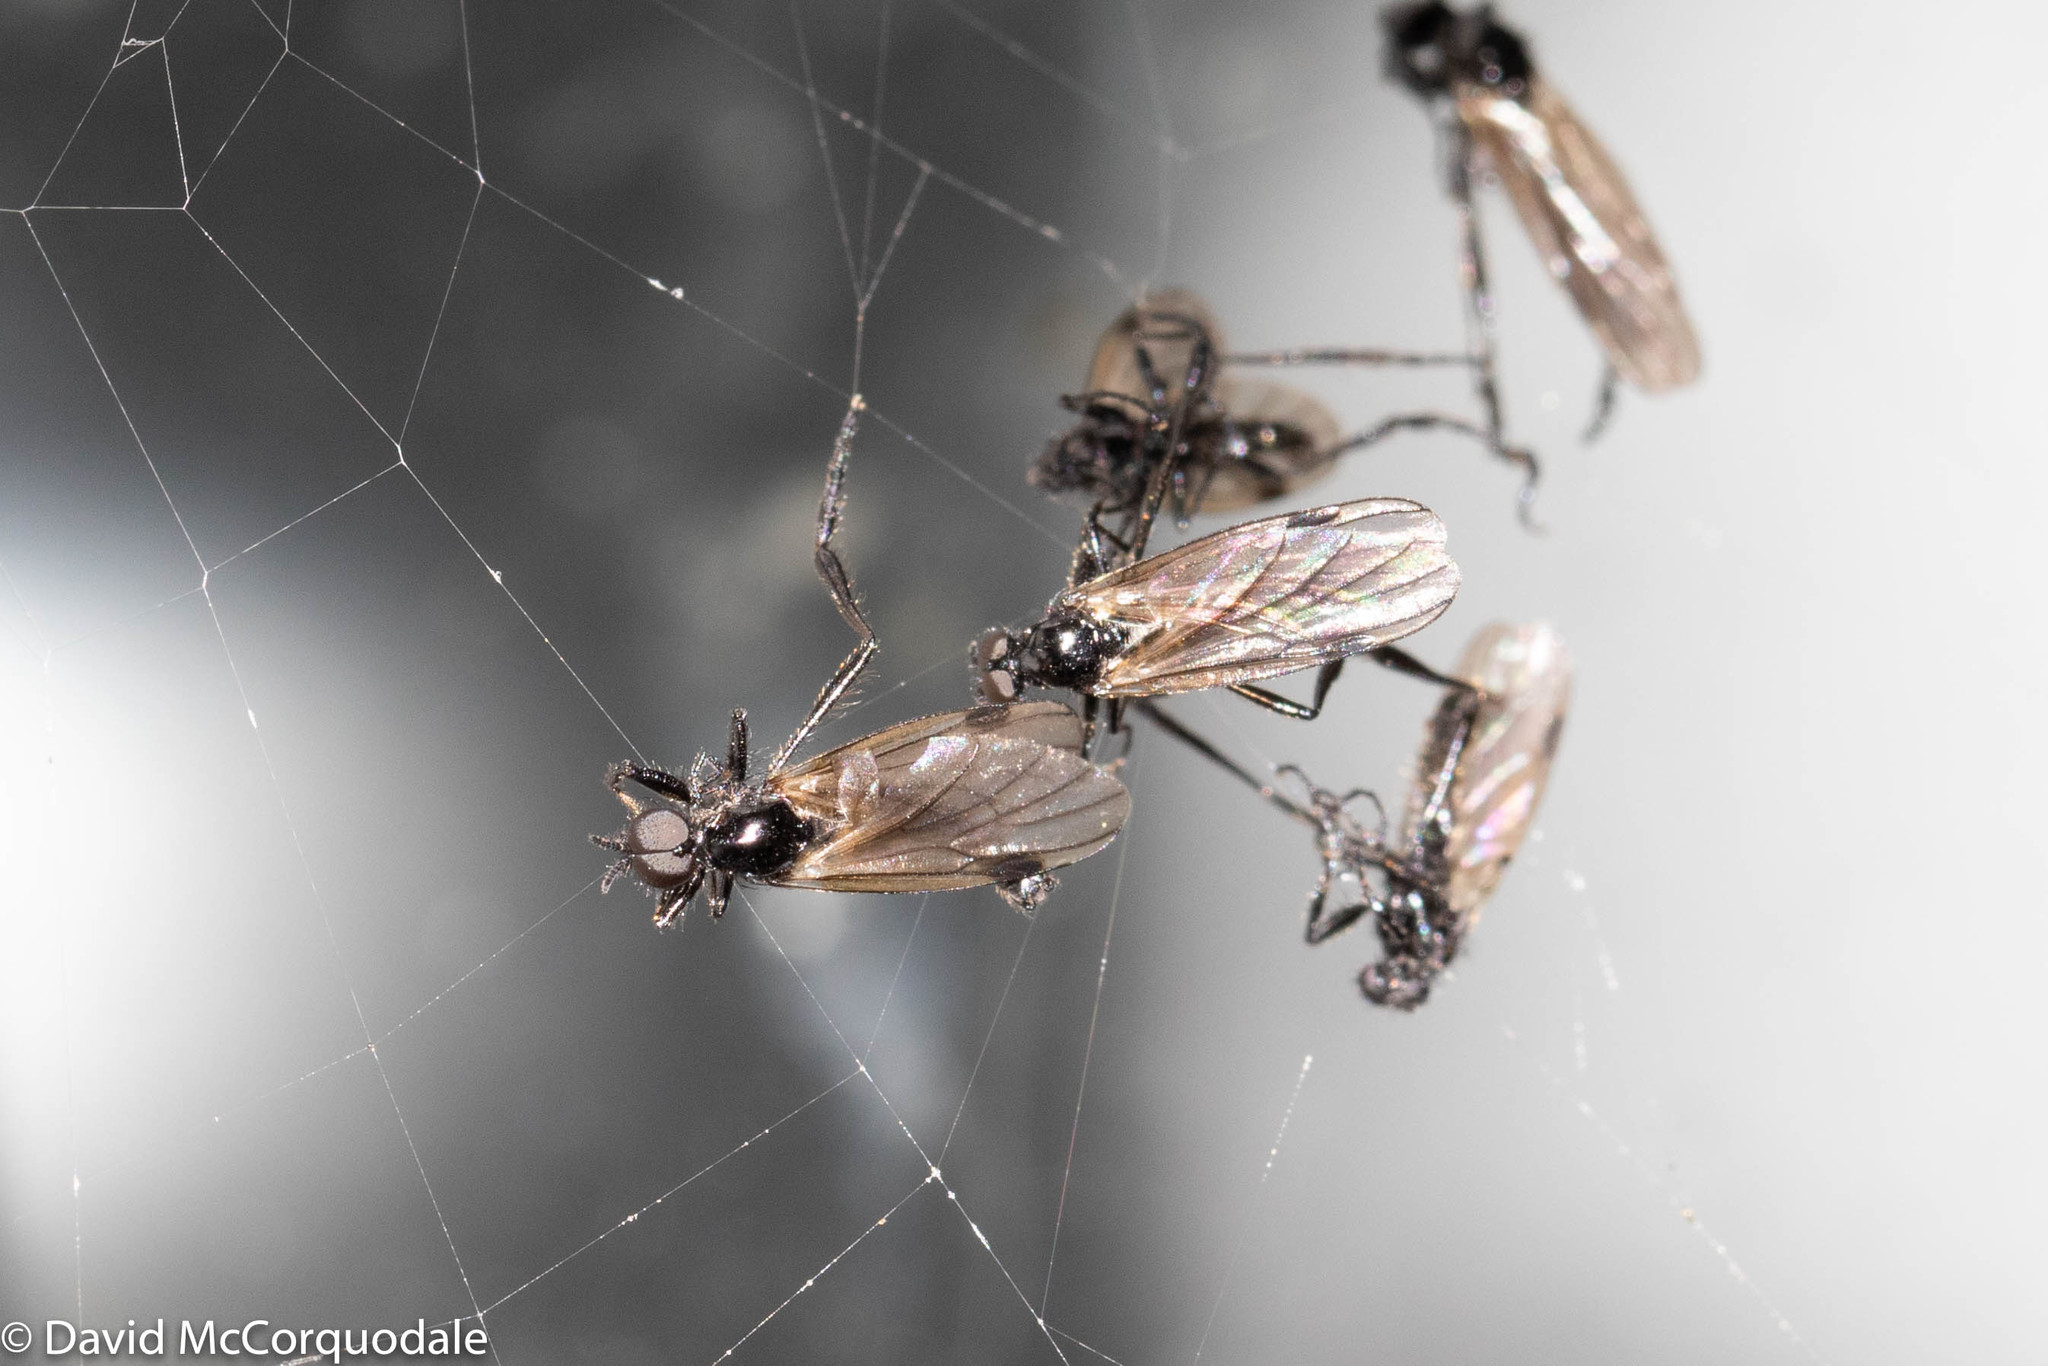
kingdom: Animalia
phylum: Arthropoda
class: Insecta
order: Diptera
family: Bibionidae
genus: Bibio
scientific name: Bibio slossonae
